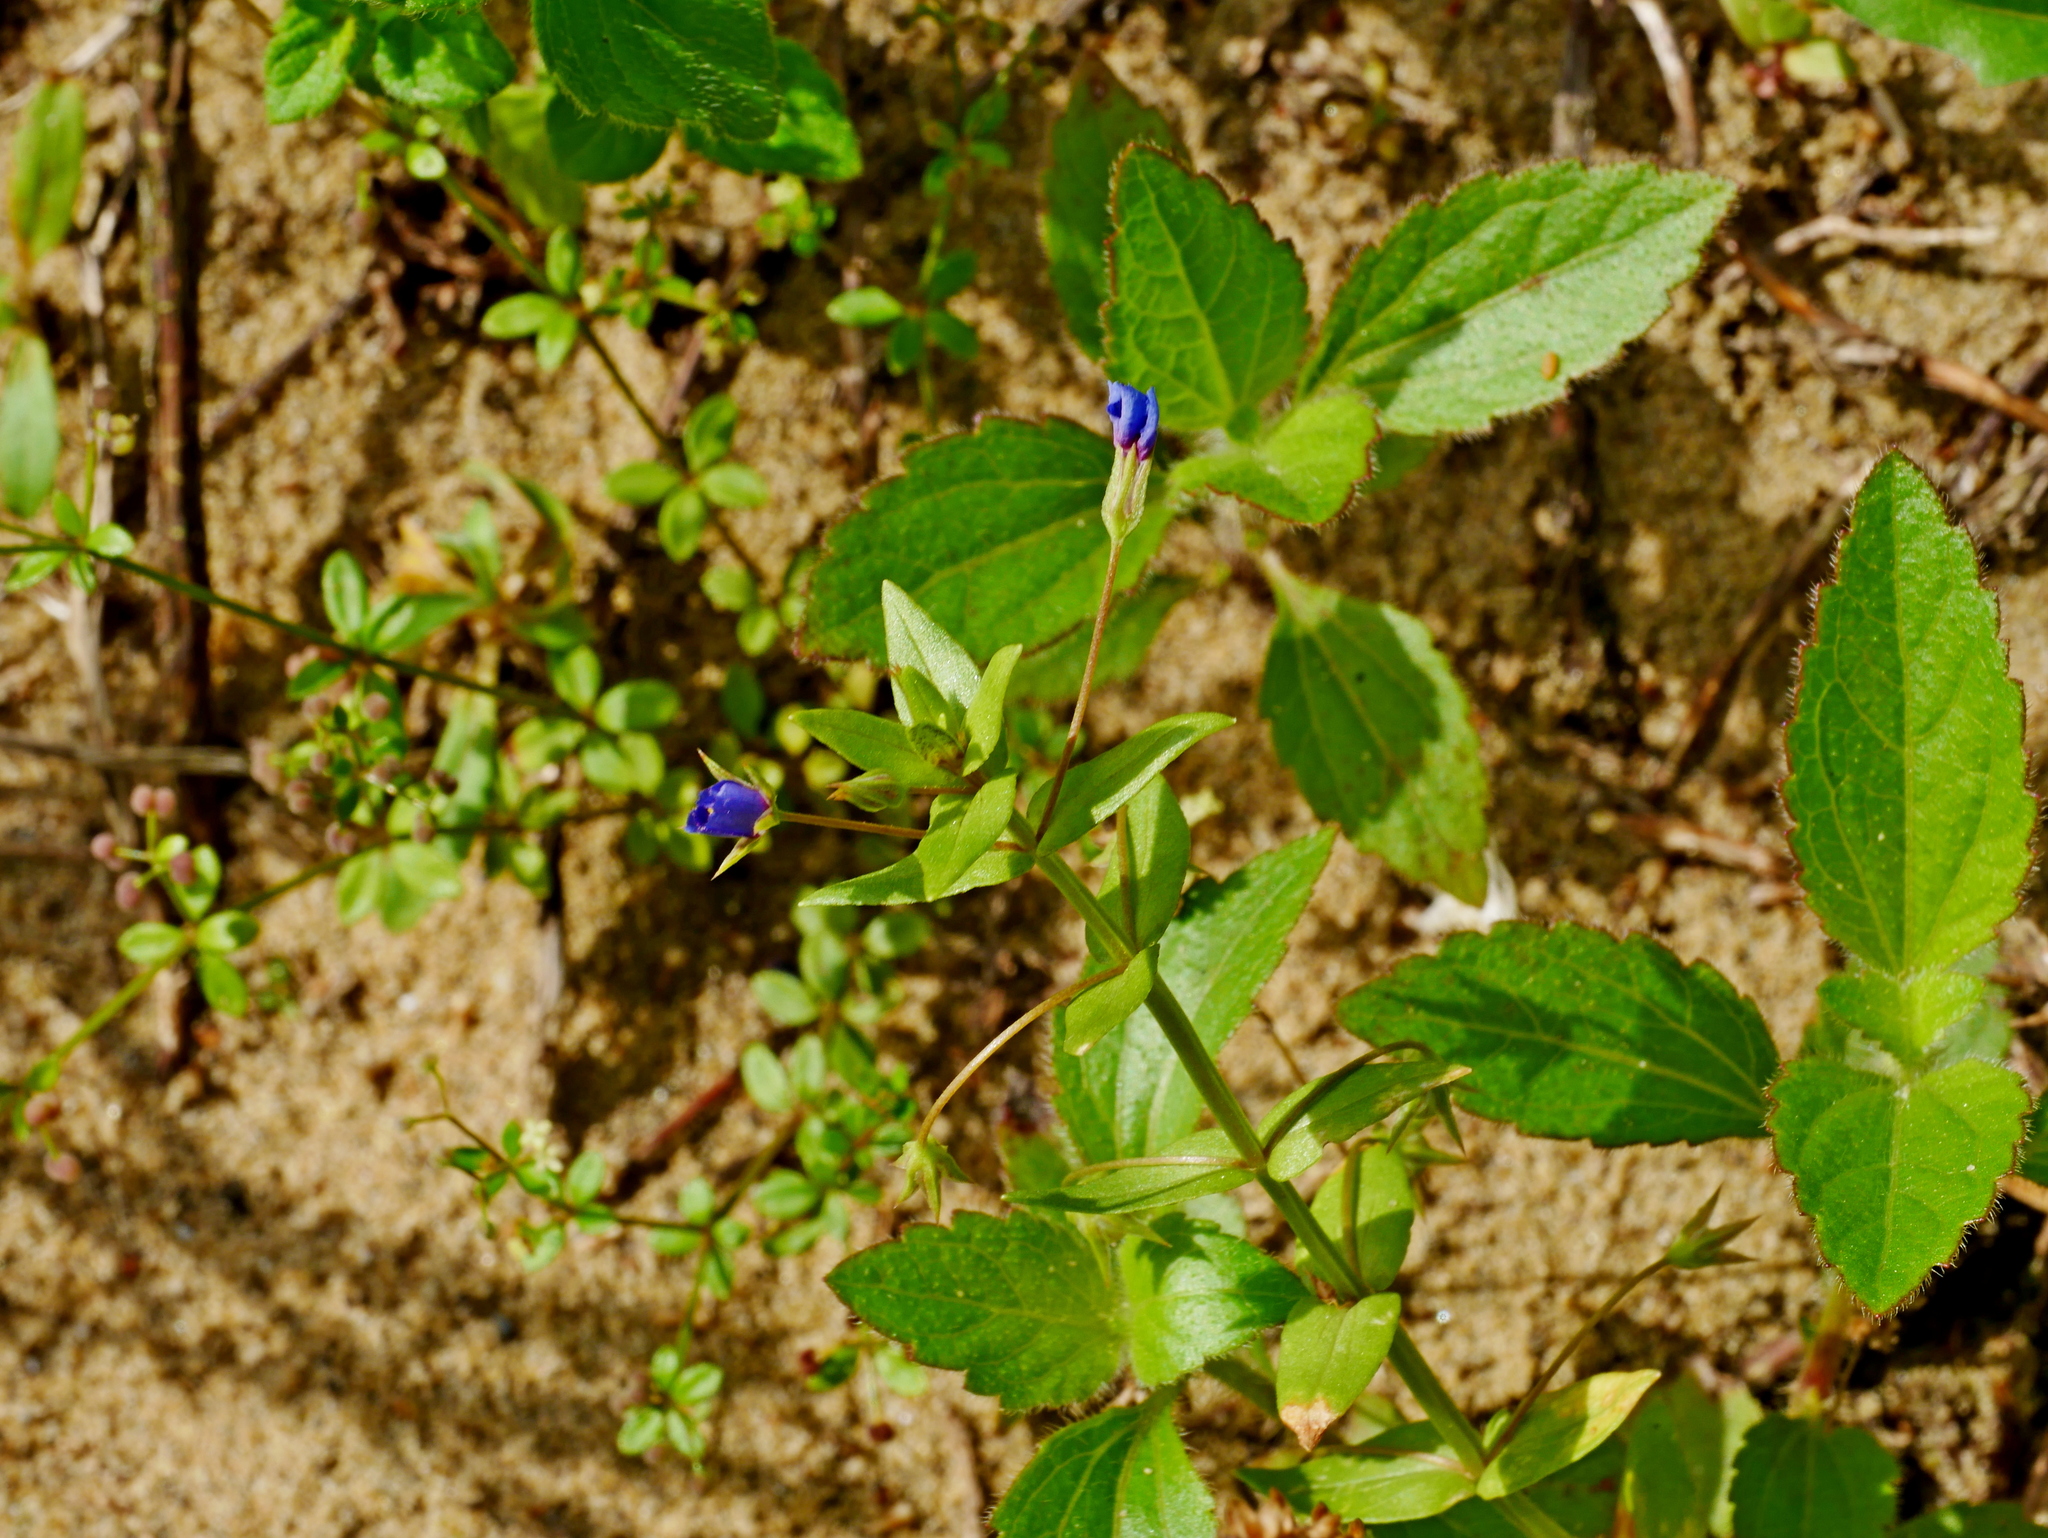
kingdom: Plantae
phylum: Tracheophyta
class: Magnoliopsida
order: Ericales
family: Primulaceae
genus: Lysimachia
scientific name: Lysimachia loeflingii
